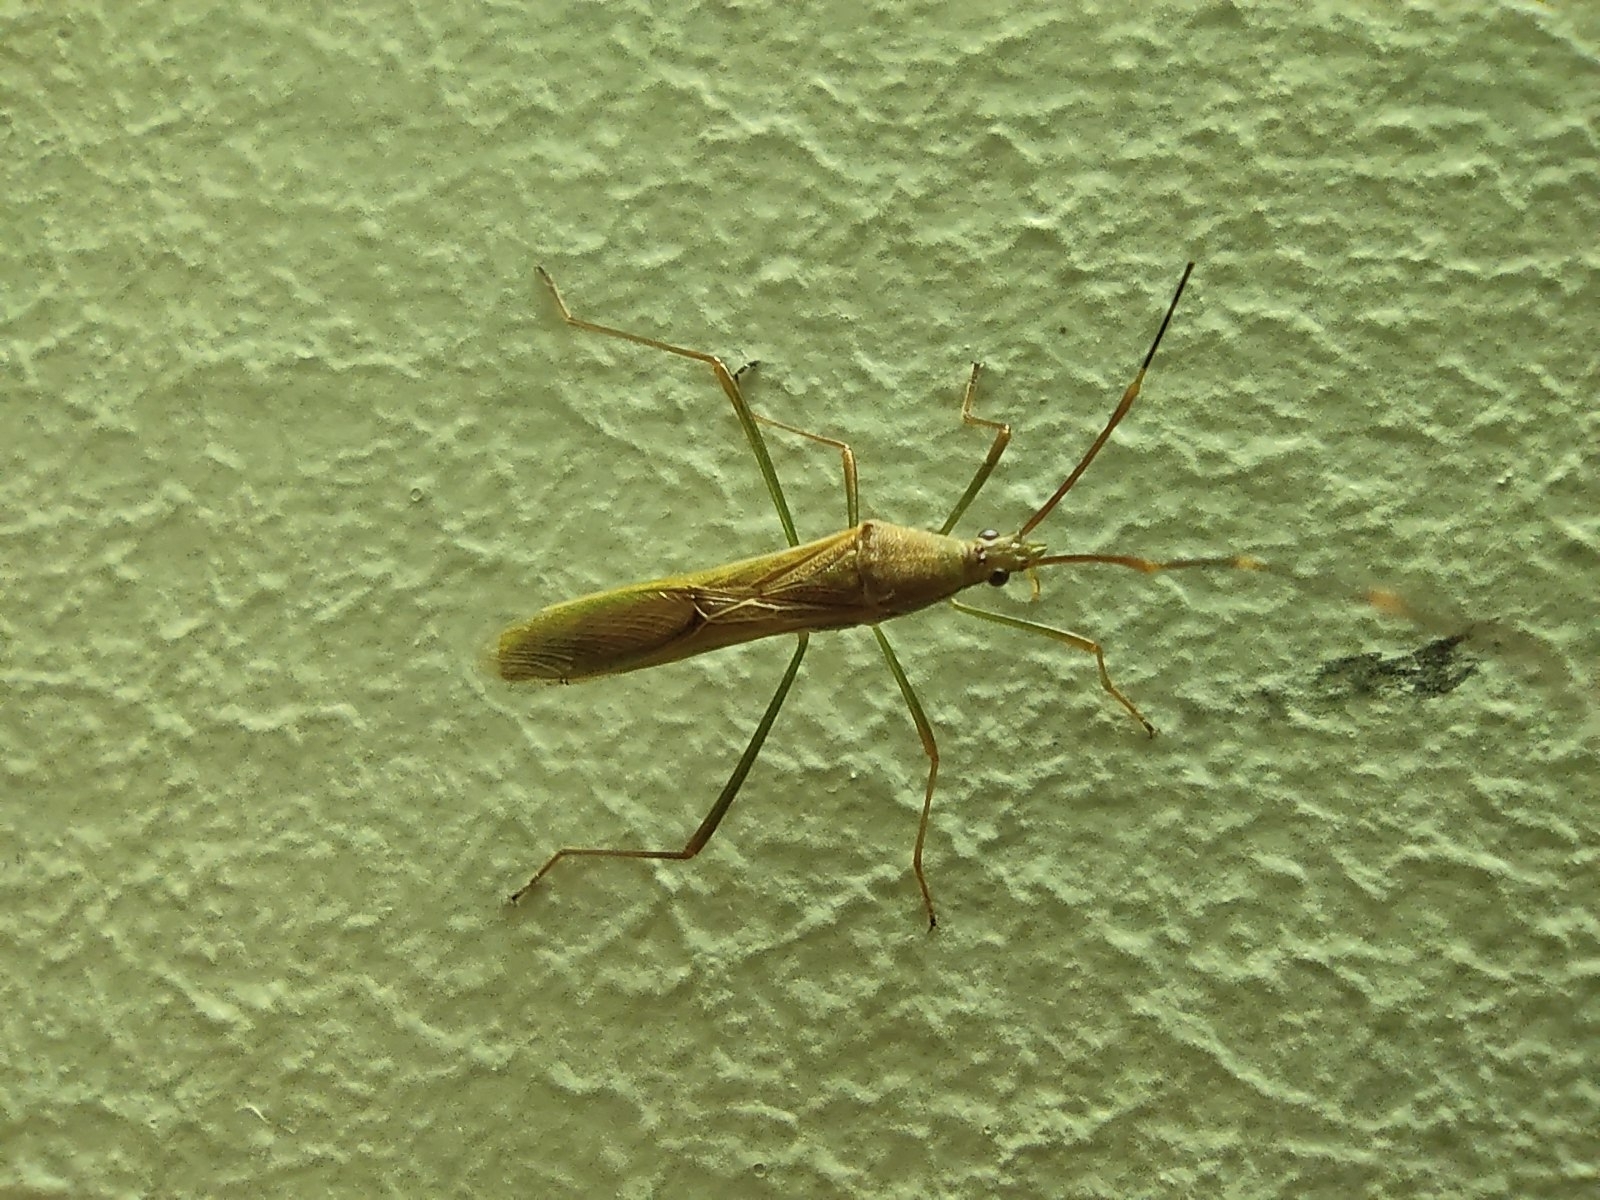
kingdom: Animalia
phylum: Arthropoda
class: Insecta
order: Hemiptera
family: Alydidae
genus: Leptocorisa
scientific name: Leptocorisa acuta
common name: Gandhi bug
